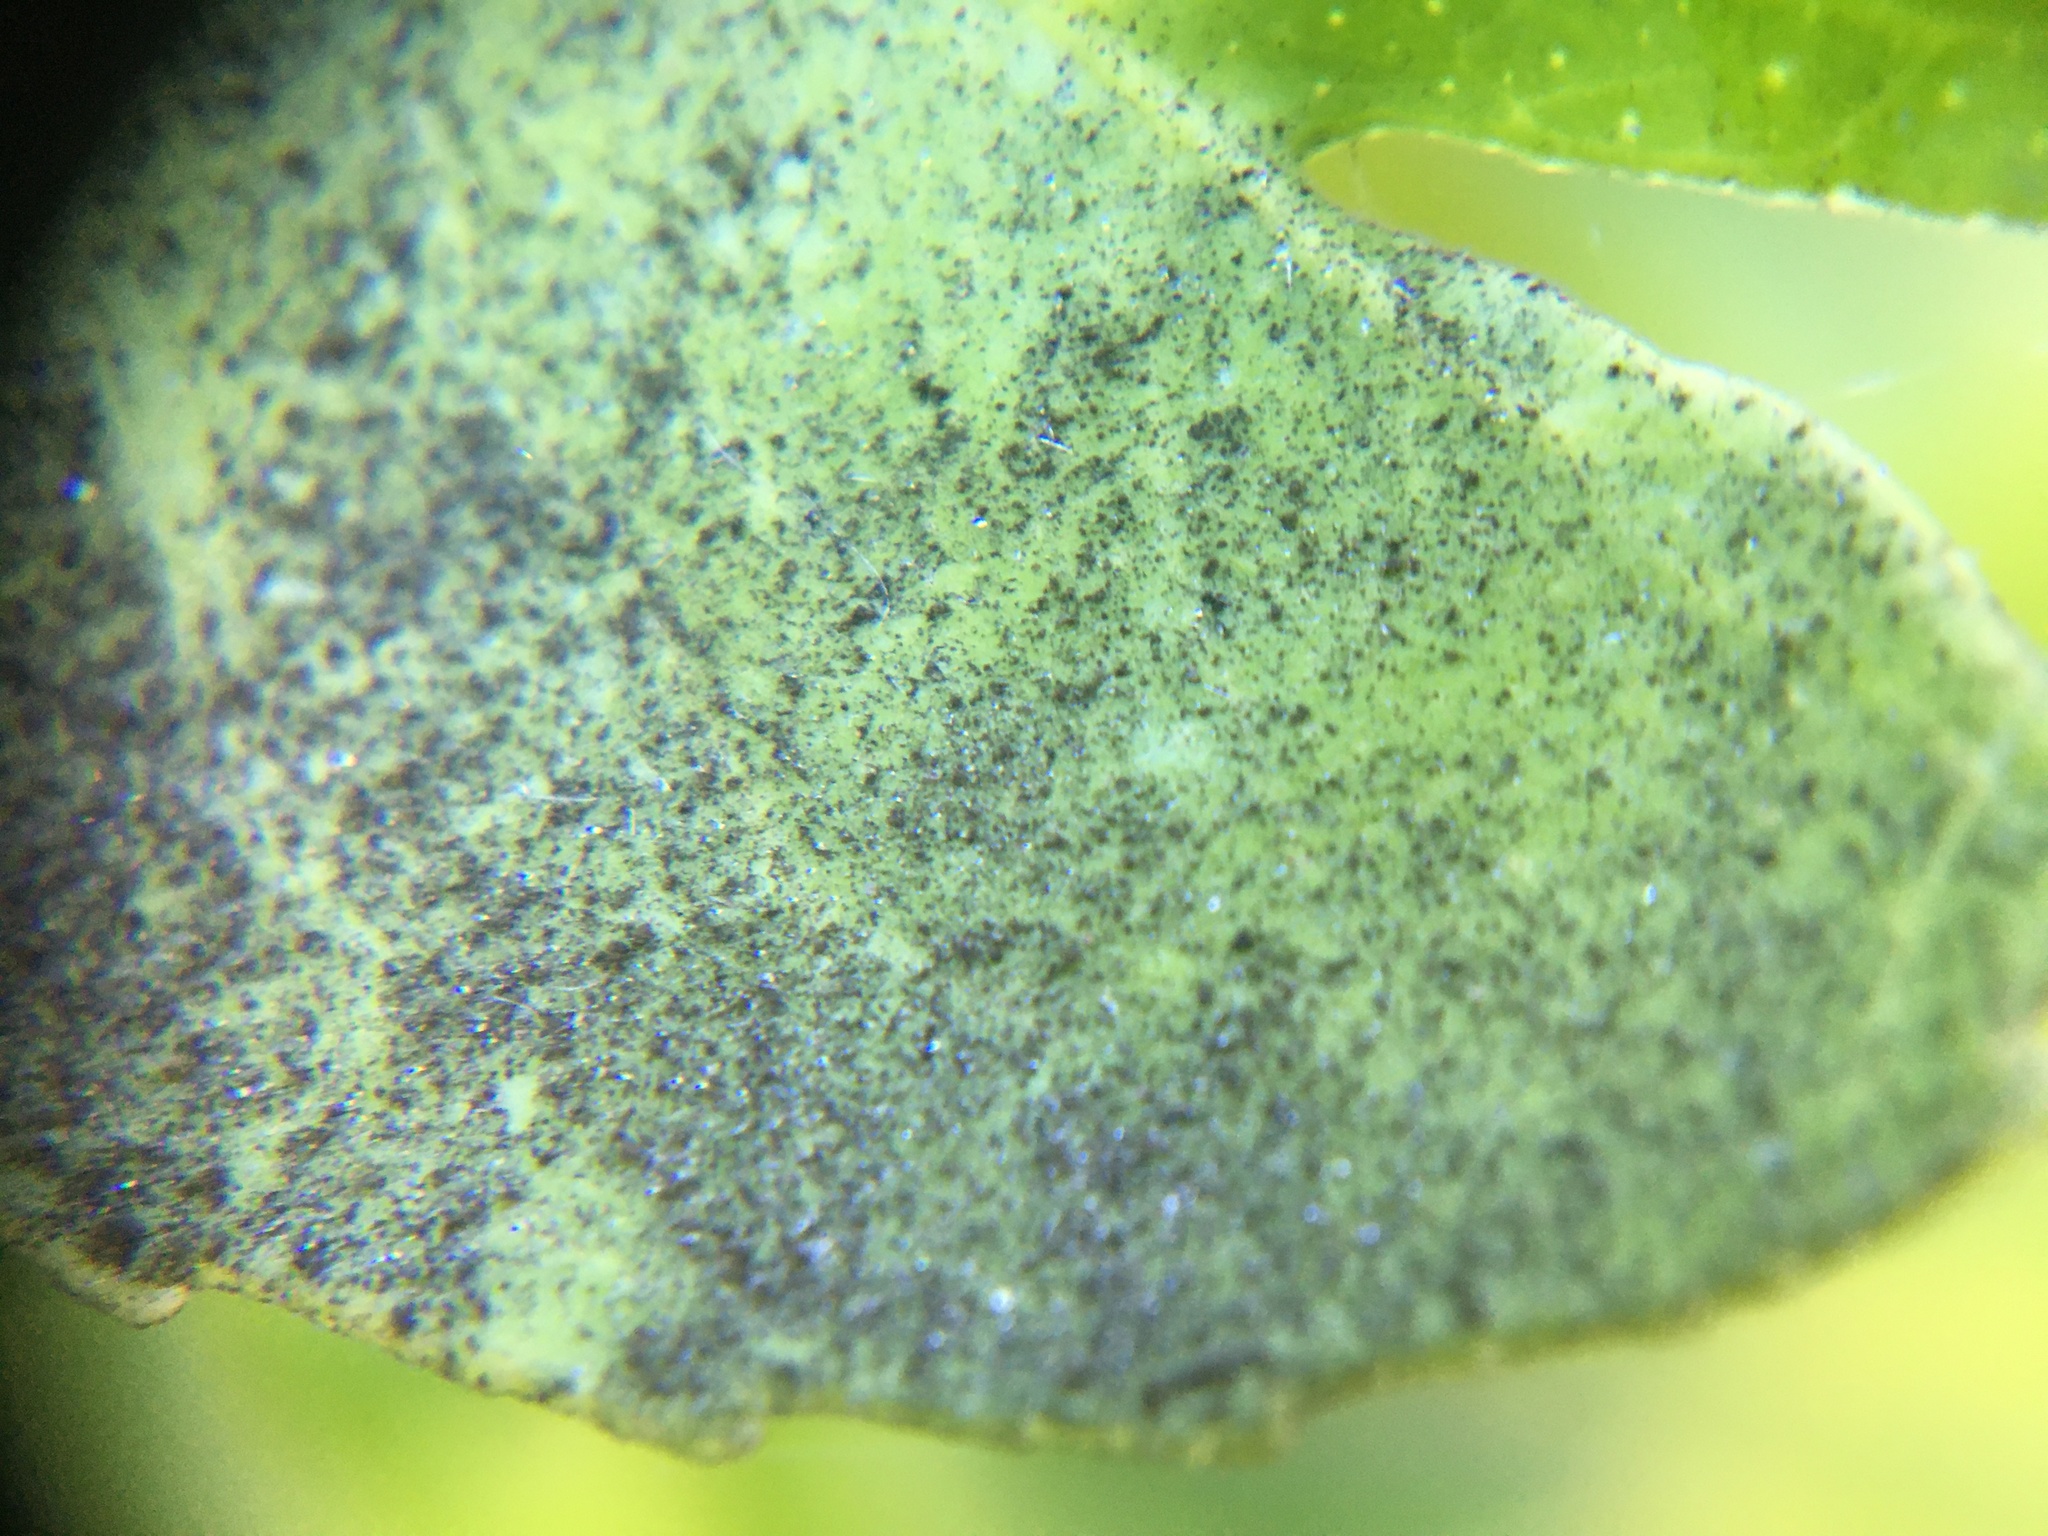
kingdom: Animalia
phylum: Arthropoda
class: Insecta
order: Hemiptera
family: Aleyrodidae
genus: Aleurothrixus
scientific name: Aleurothrixus floccosus
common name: Whitefly
